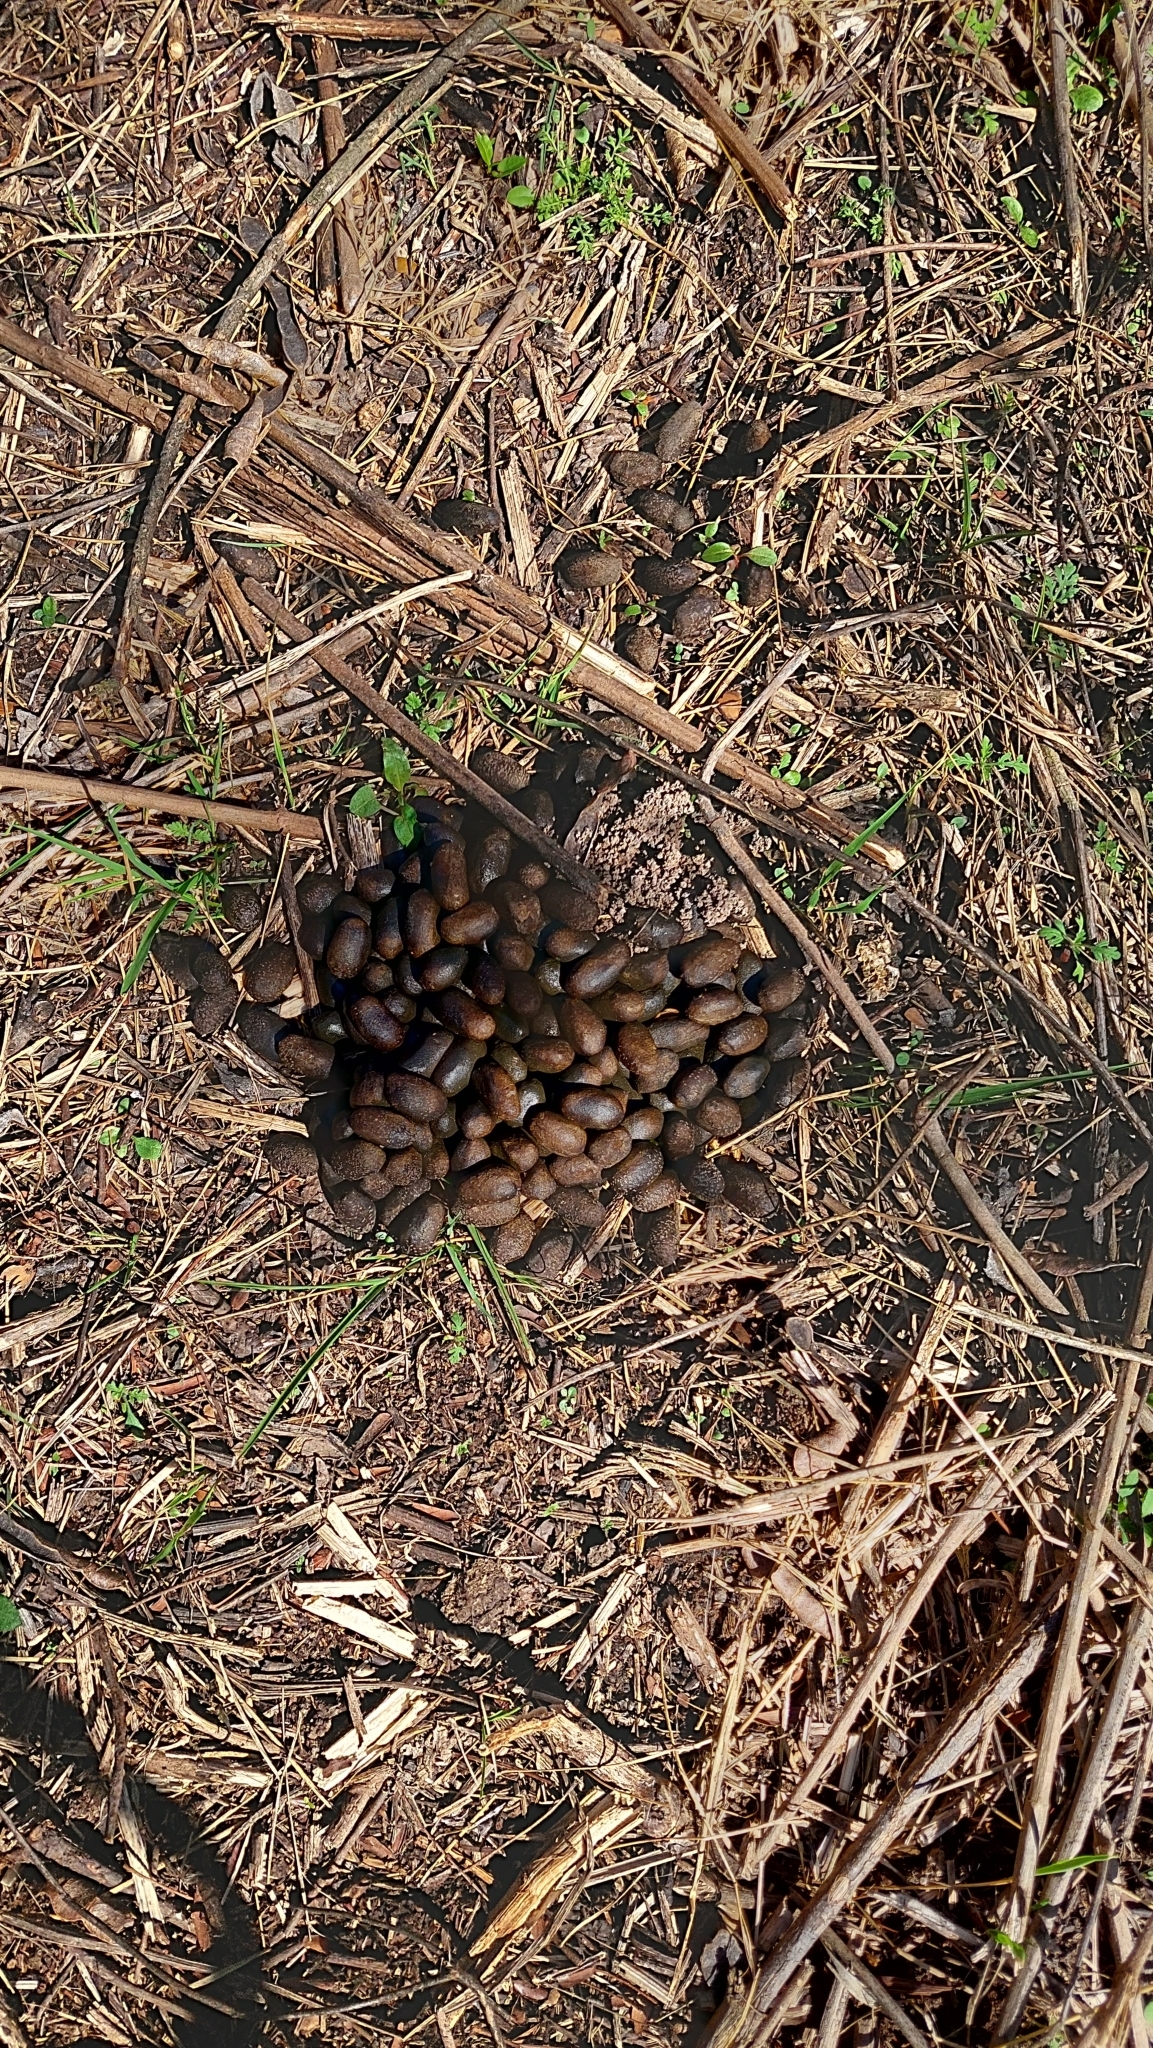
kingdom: Animalia
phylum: Chordata
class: Mammalia
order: Rodentia
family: Caviidae
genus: Hydrochoerus
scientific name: Hydrochoerus hydrochaeris
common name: Capybara
